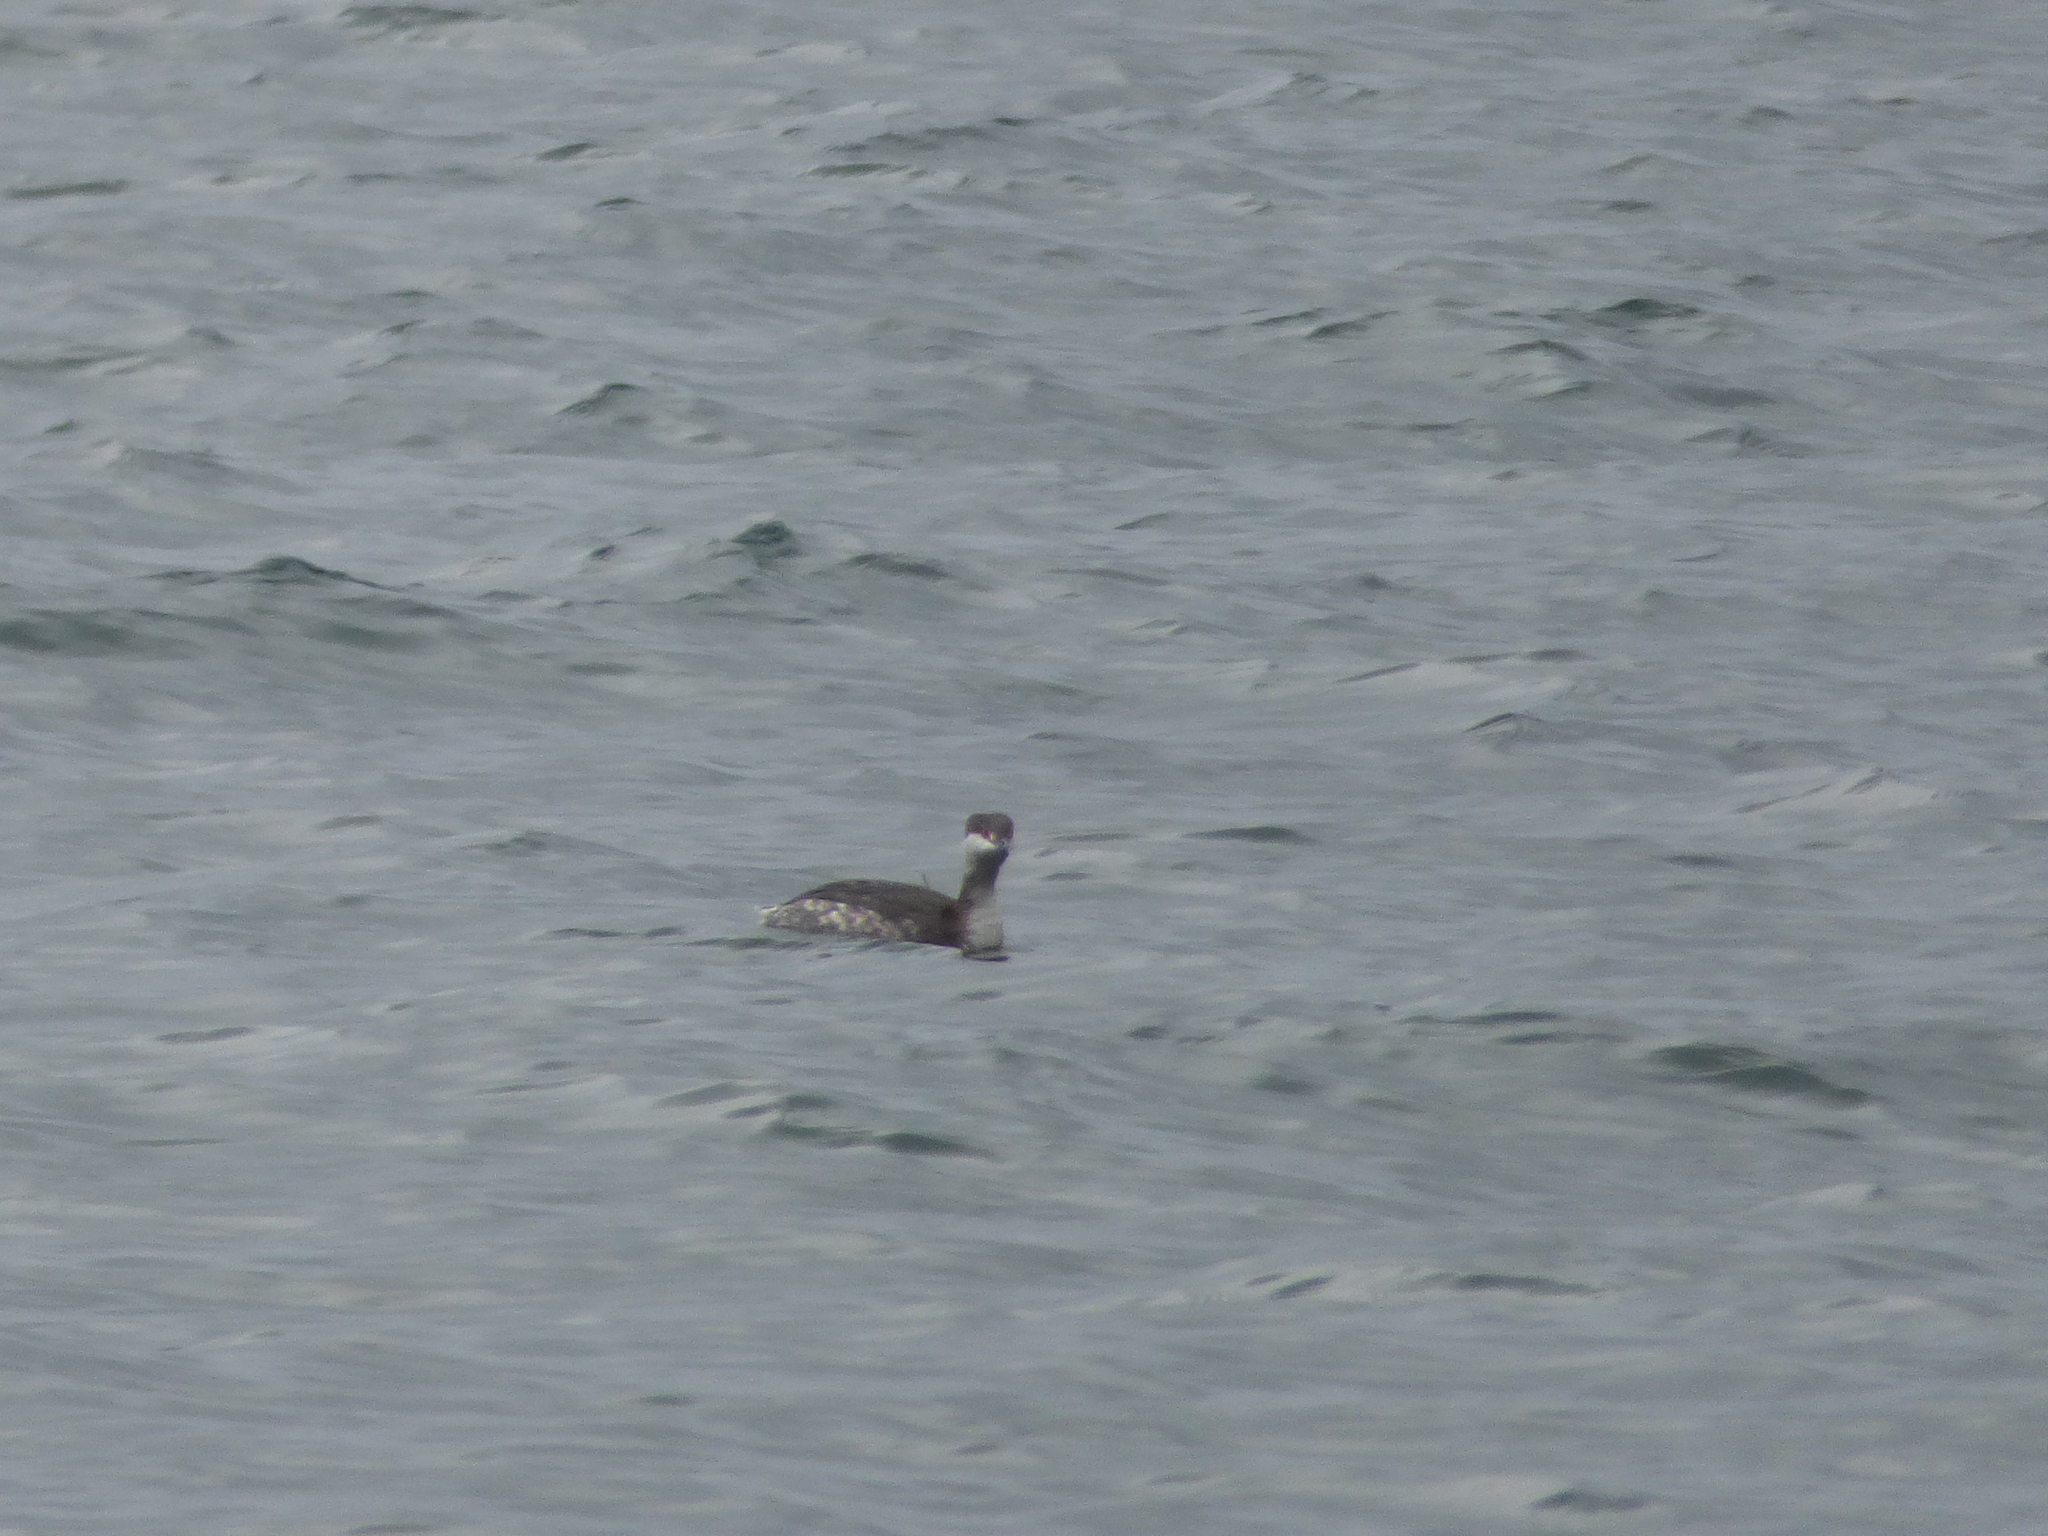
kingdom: Animalia
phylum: Chordata
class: Aves
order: Podicipediformes
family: Podicipedidae
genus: Podiceps
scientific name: Podiceps auritus
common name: Horned grebe
